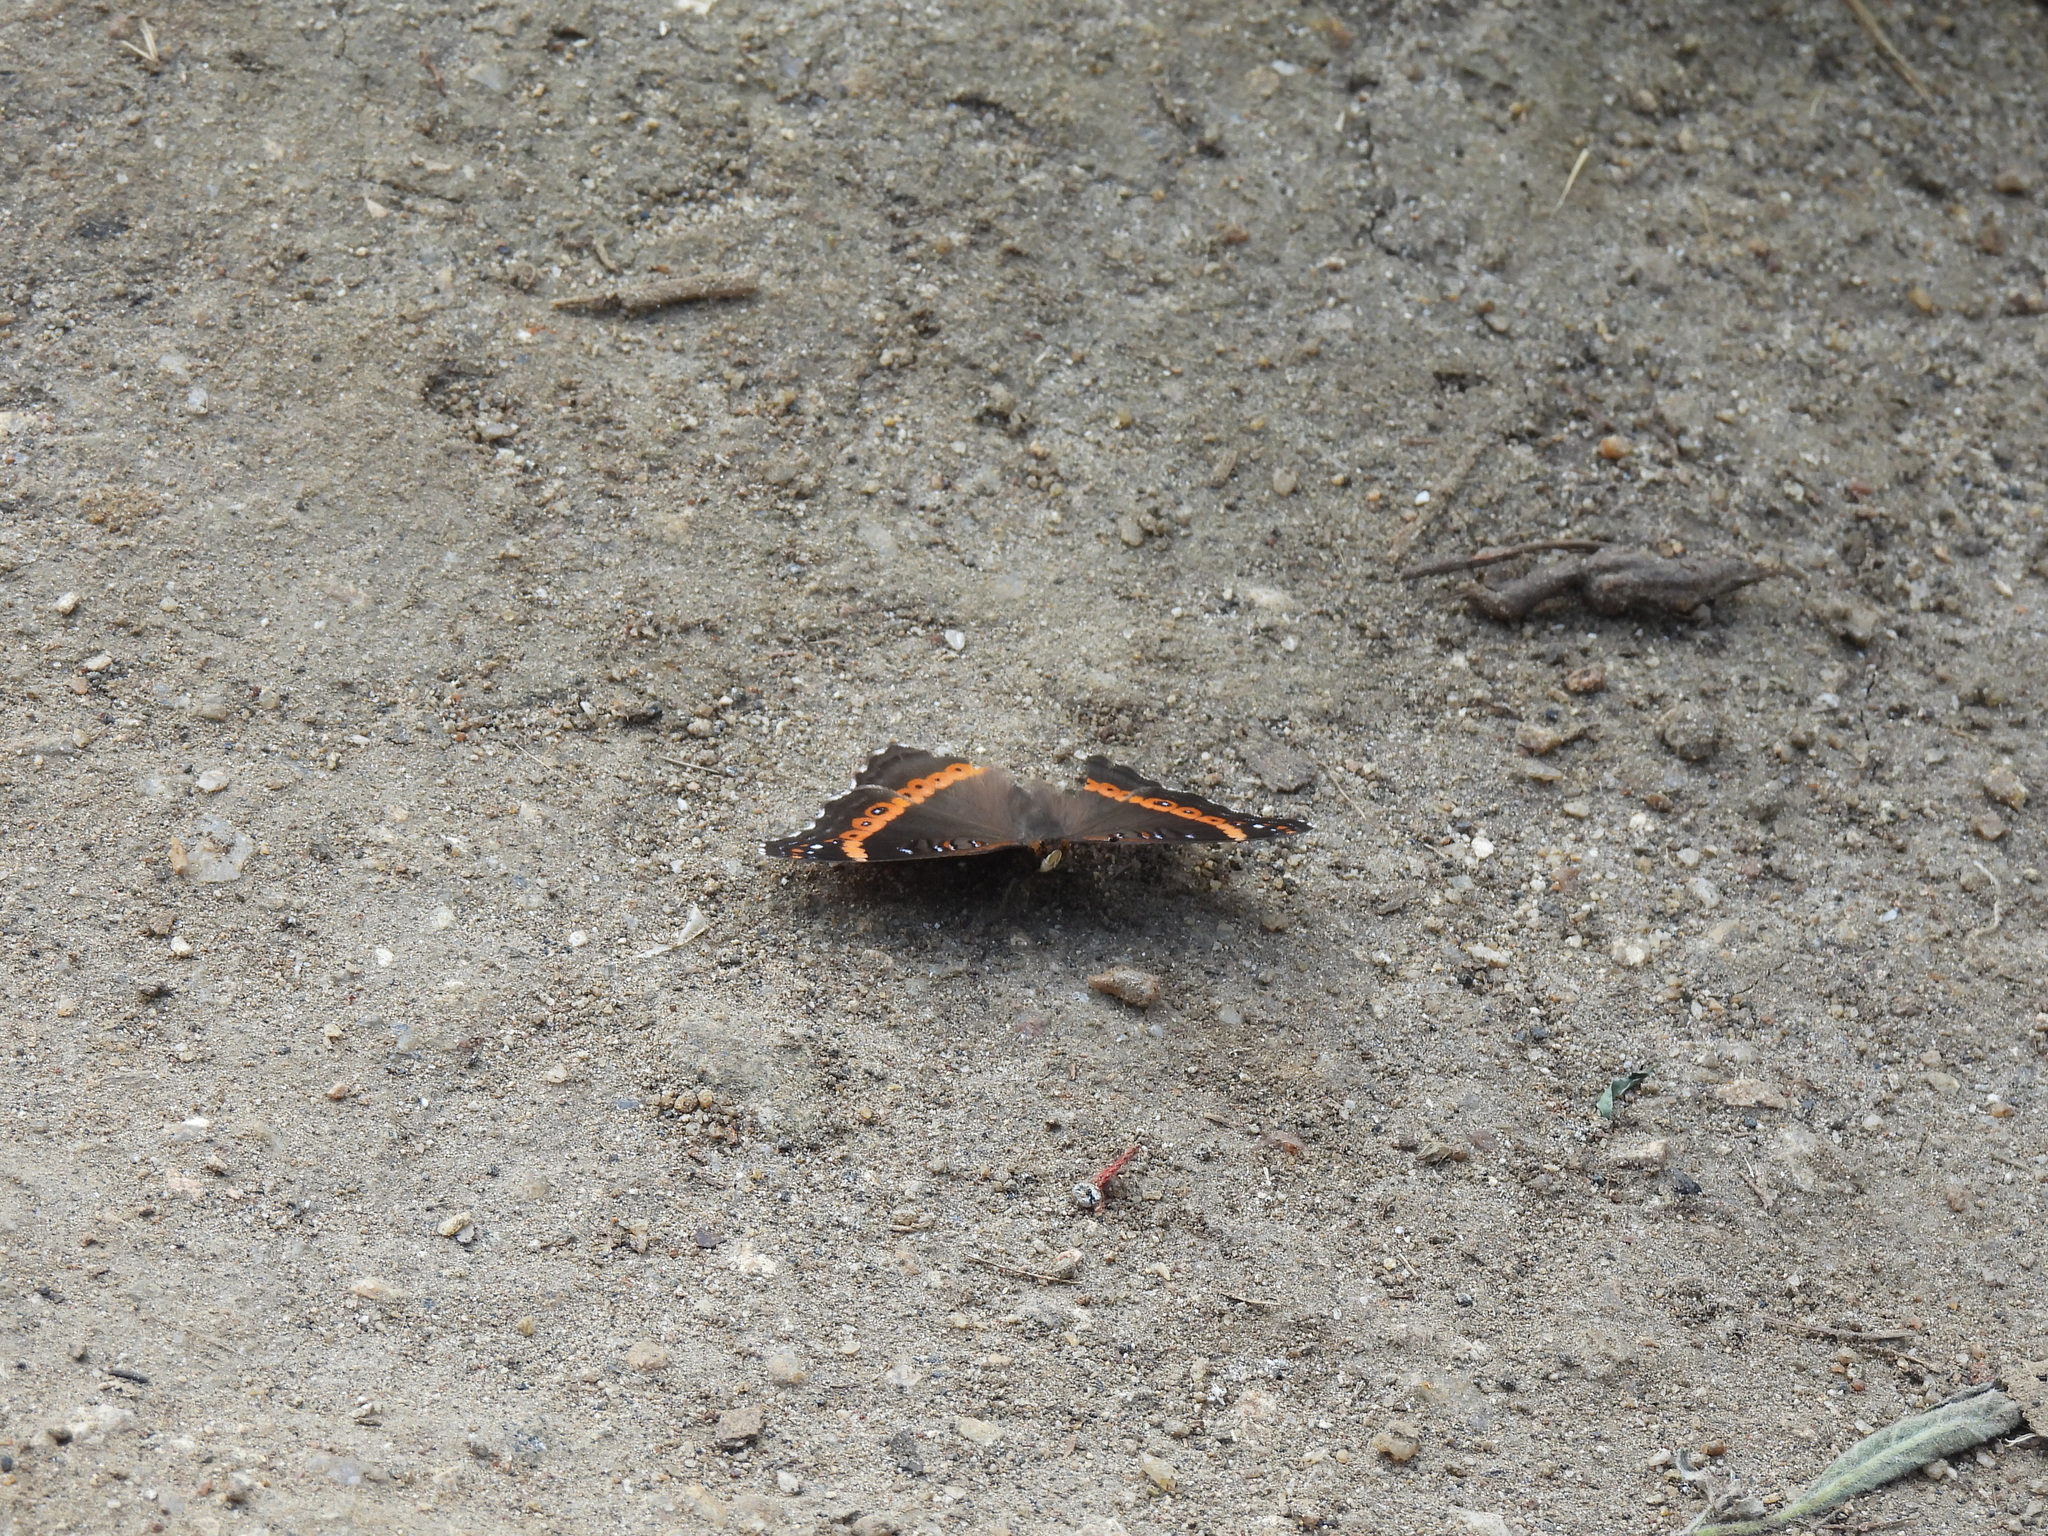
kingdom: Animalia
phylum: Arthropoda
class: Insecta
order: Lepidoptera
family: Nymphalidae
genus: Junonia
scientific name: Junonia archesia
